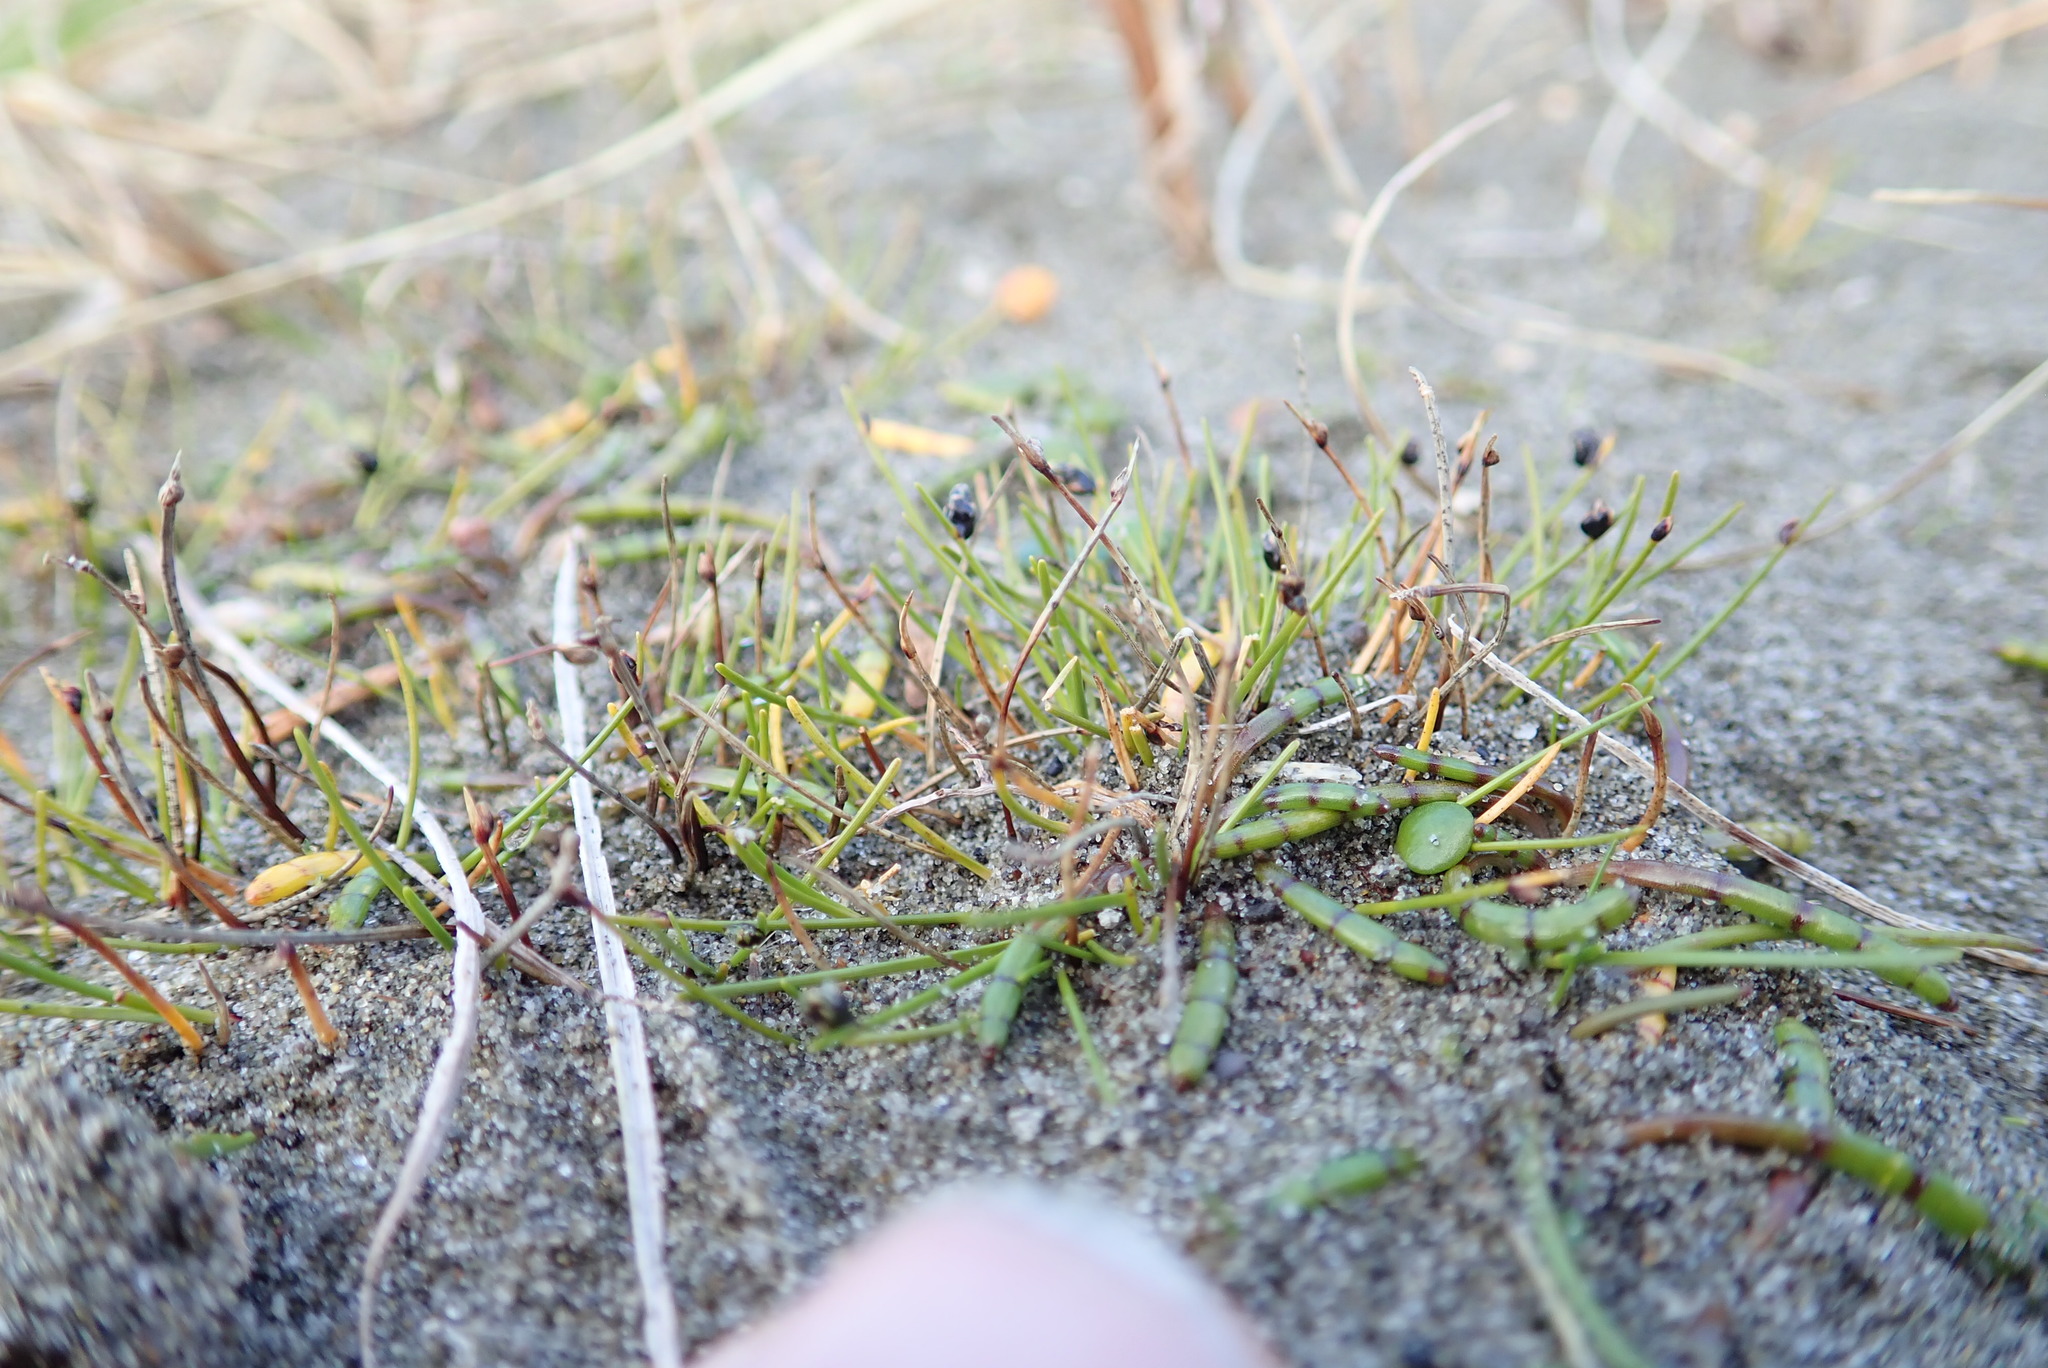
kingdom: Plantae
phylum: Tracheophyta
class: Magnoliopsida
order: Apiales
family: Apiaceae
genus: Lilaeopsis
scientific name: Lilaeopsis novae-zelandiae
